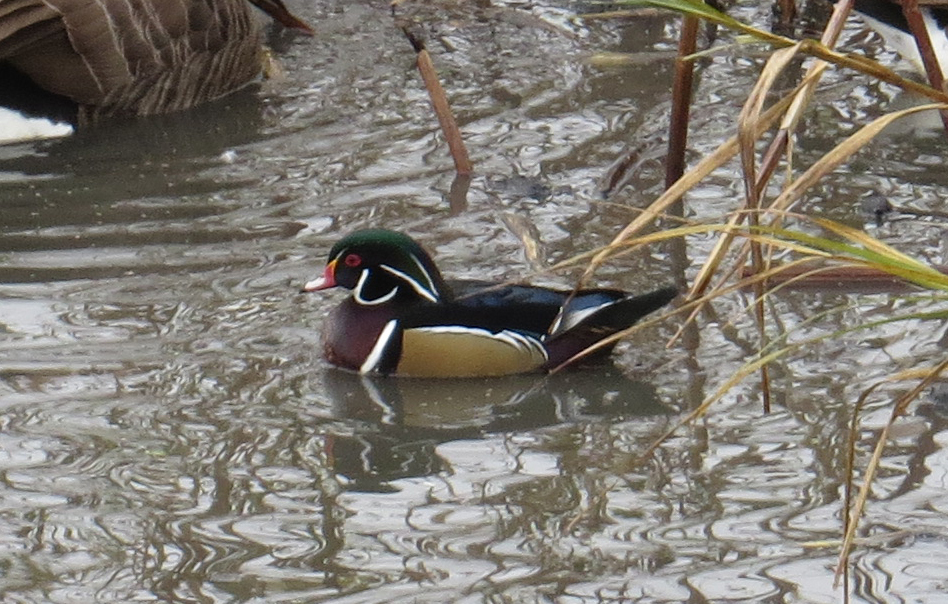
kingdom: Animalia
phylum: Chordata
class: Aves
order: Anseriformes
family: Anatidae
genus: Aix
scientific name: Aix sponsa
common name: Wood duck
